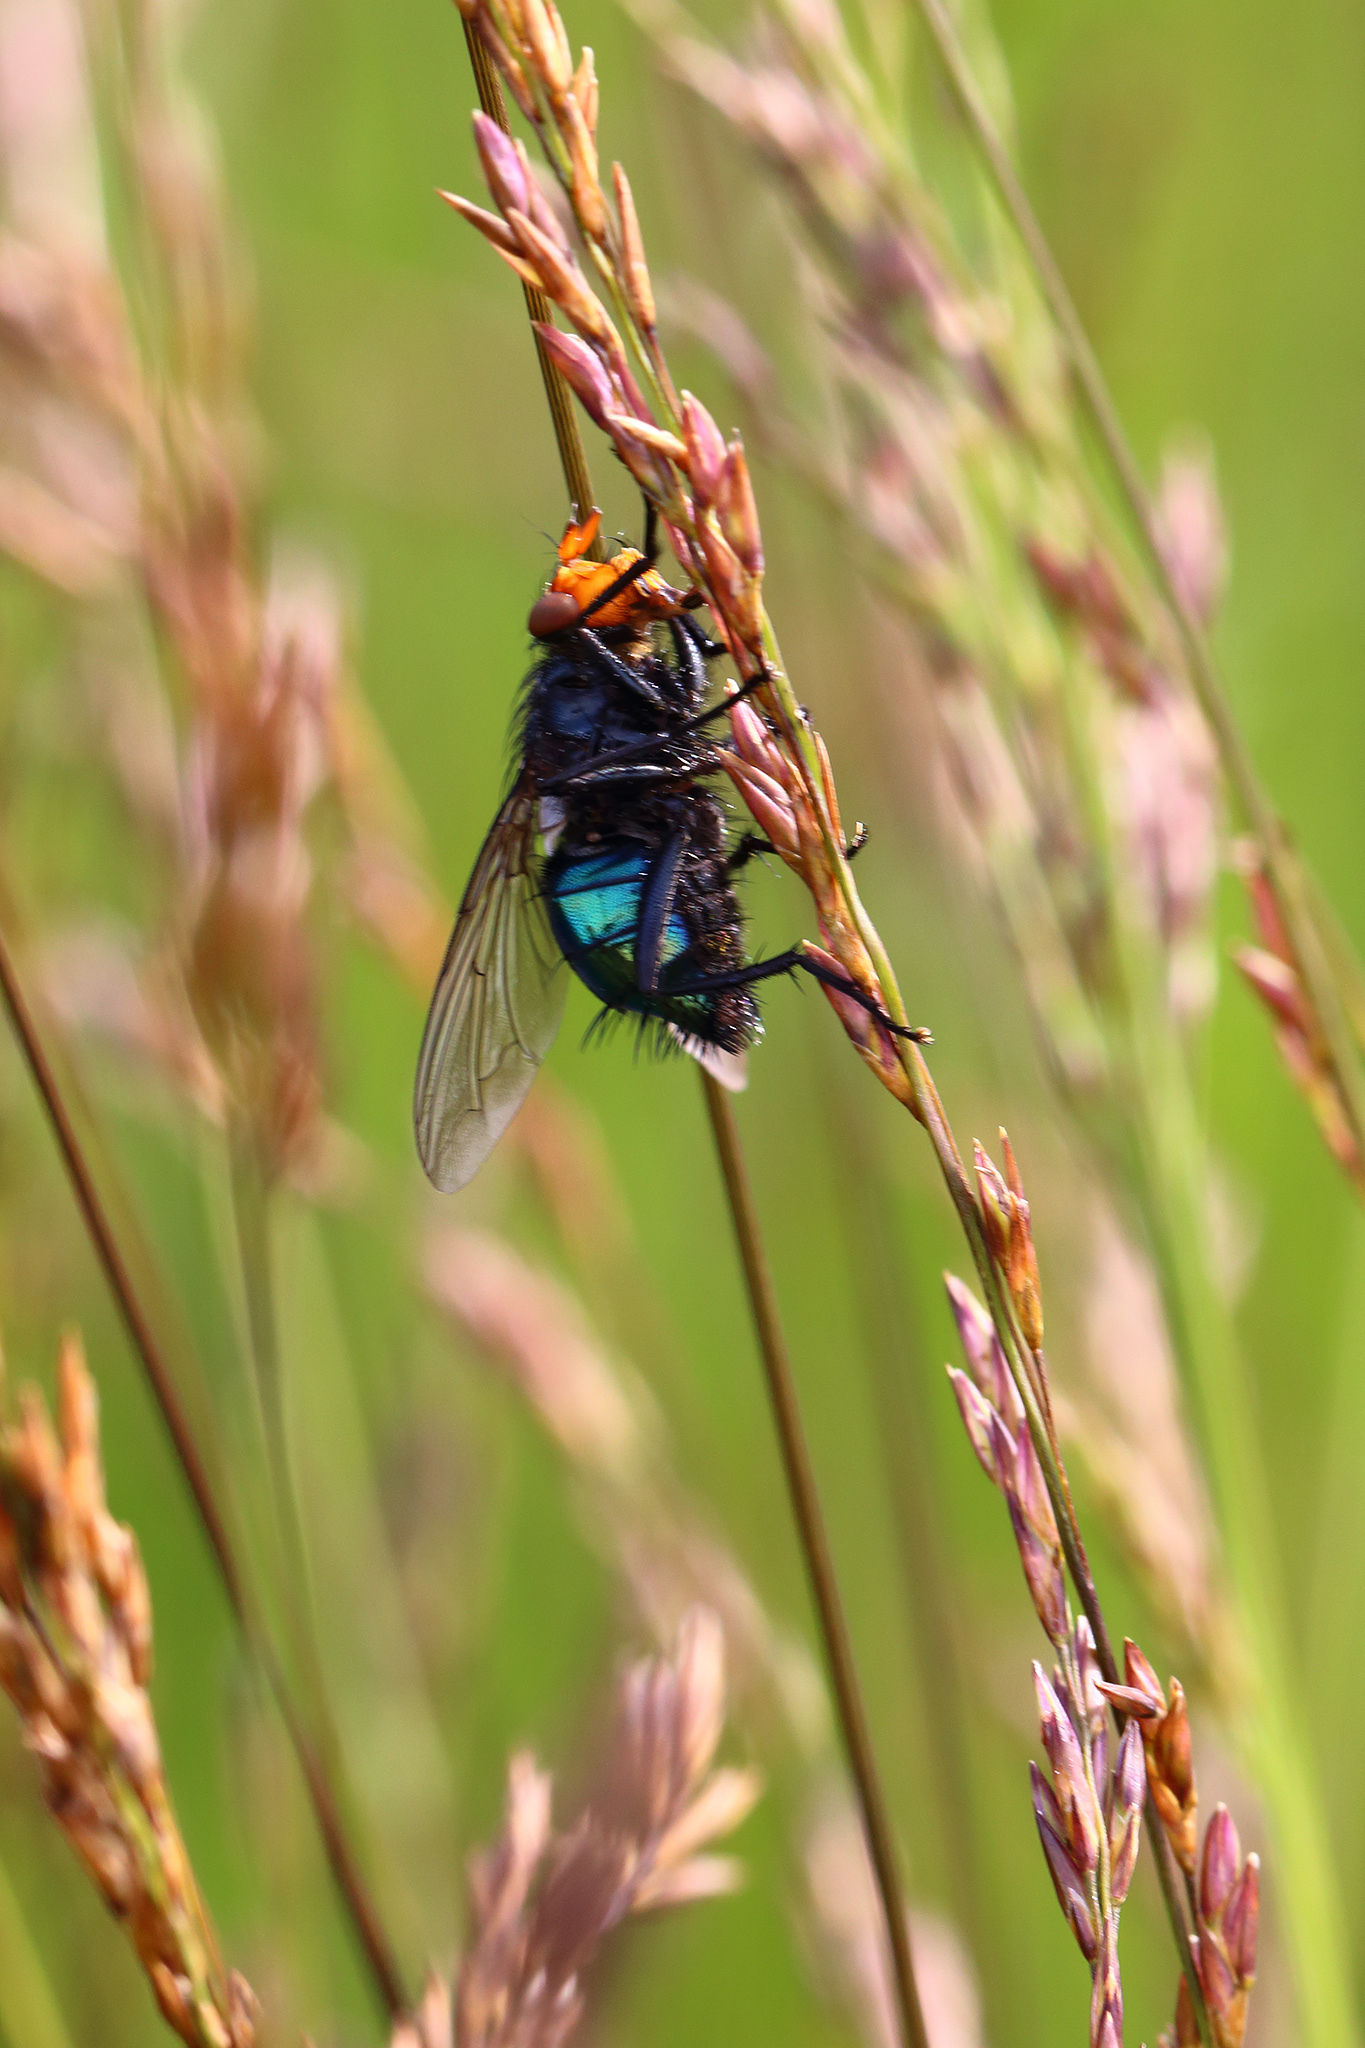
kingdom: Animalia
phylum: Arthropoda
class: Insecta
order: Diptera
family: Calliphoridae
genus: Cynomya
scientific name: Cynomya mortuorum
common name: Bluebottle blow fly
